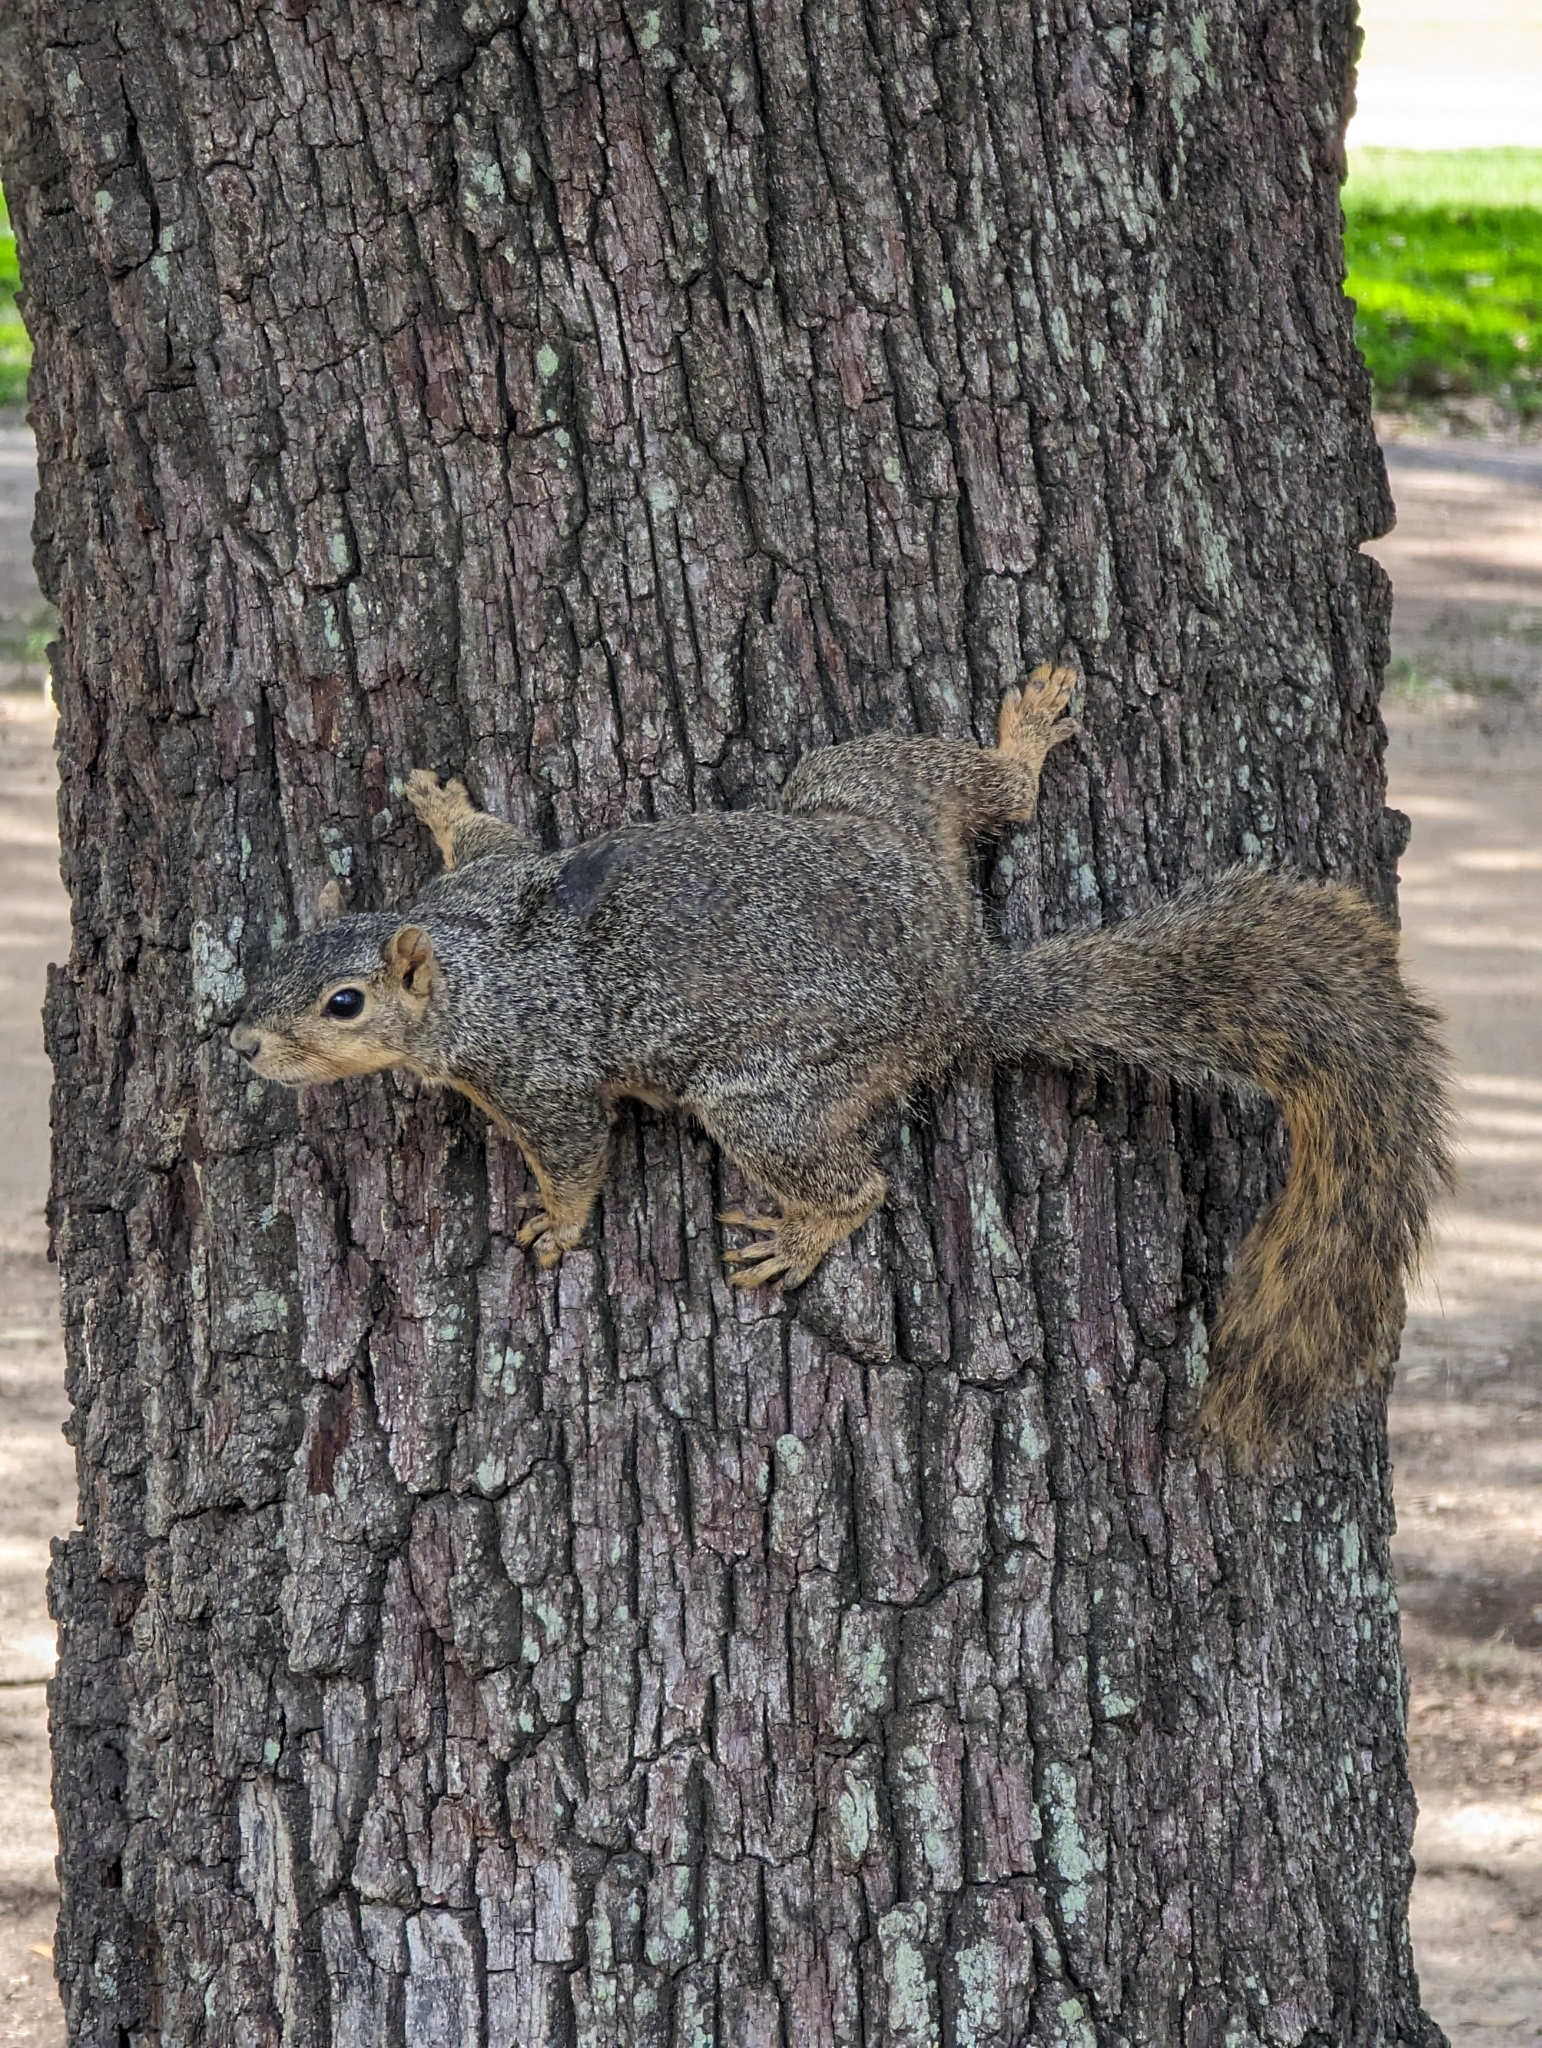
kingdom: Animalia
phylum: Chordata
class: Mammalia
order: Rodentia
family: Sciuridae
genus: Sciurus
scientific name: Sciurus niger
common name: Fox squirrel
